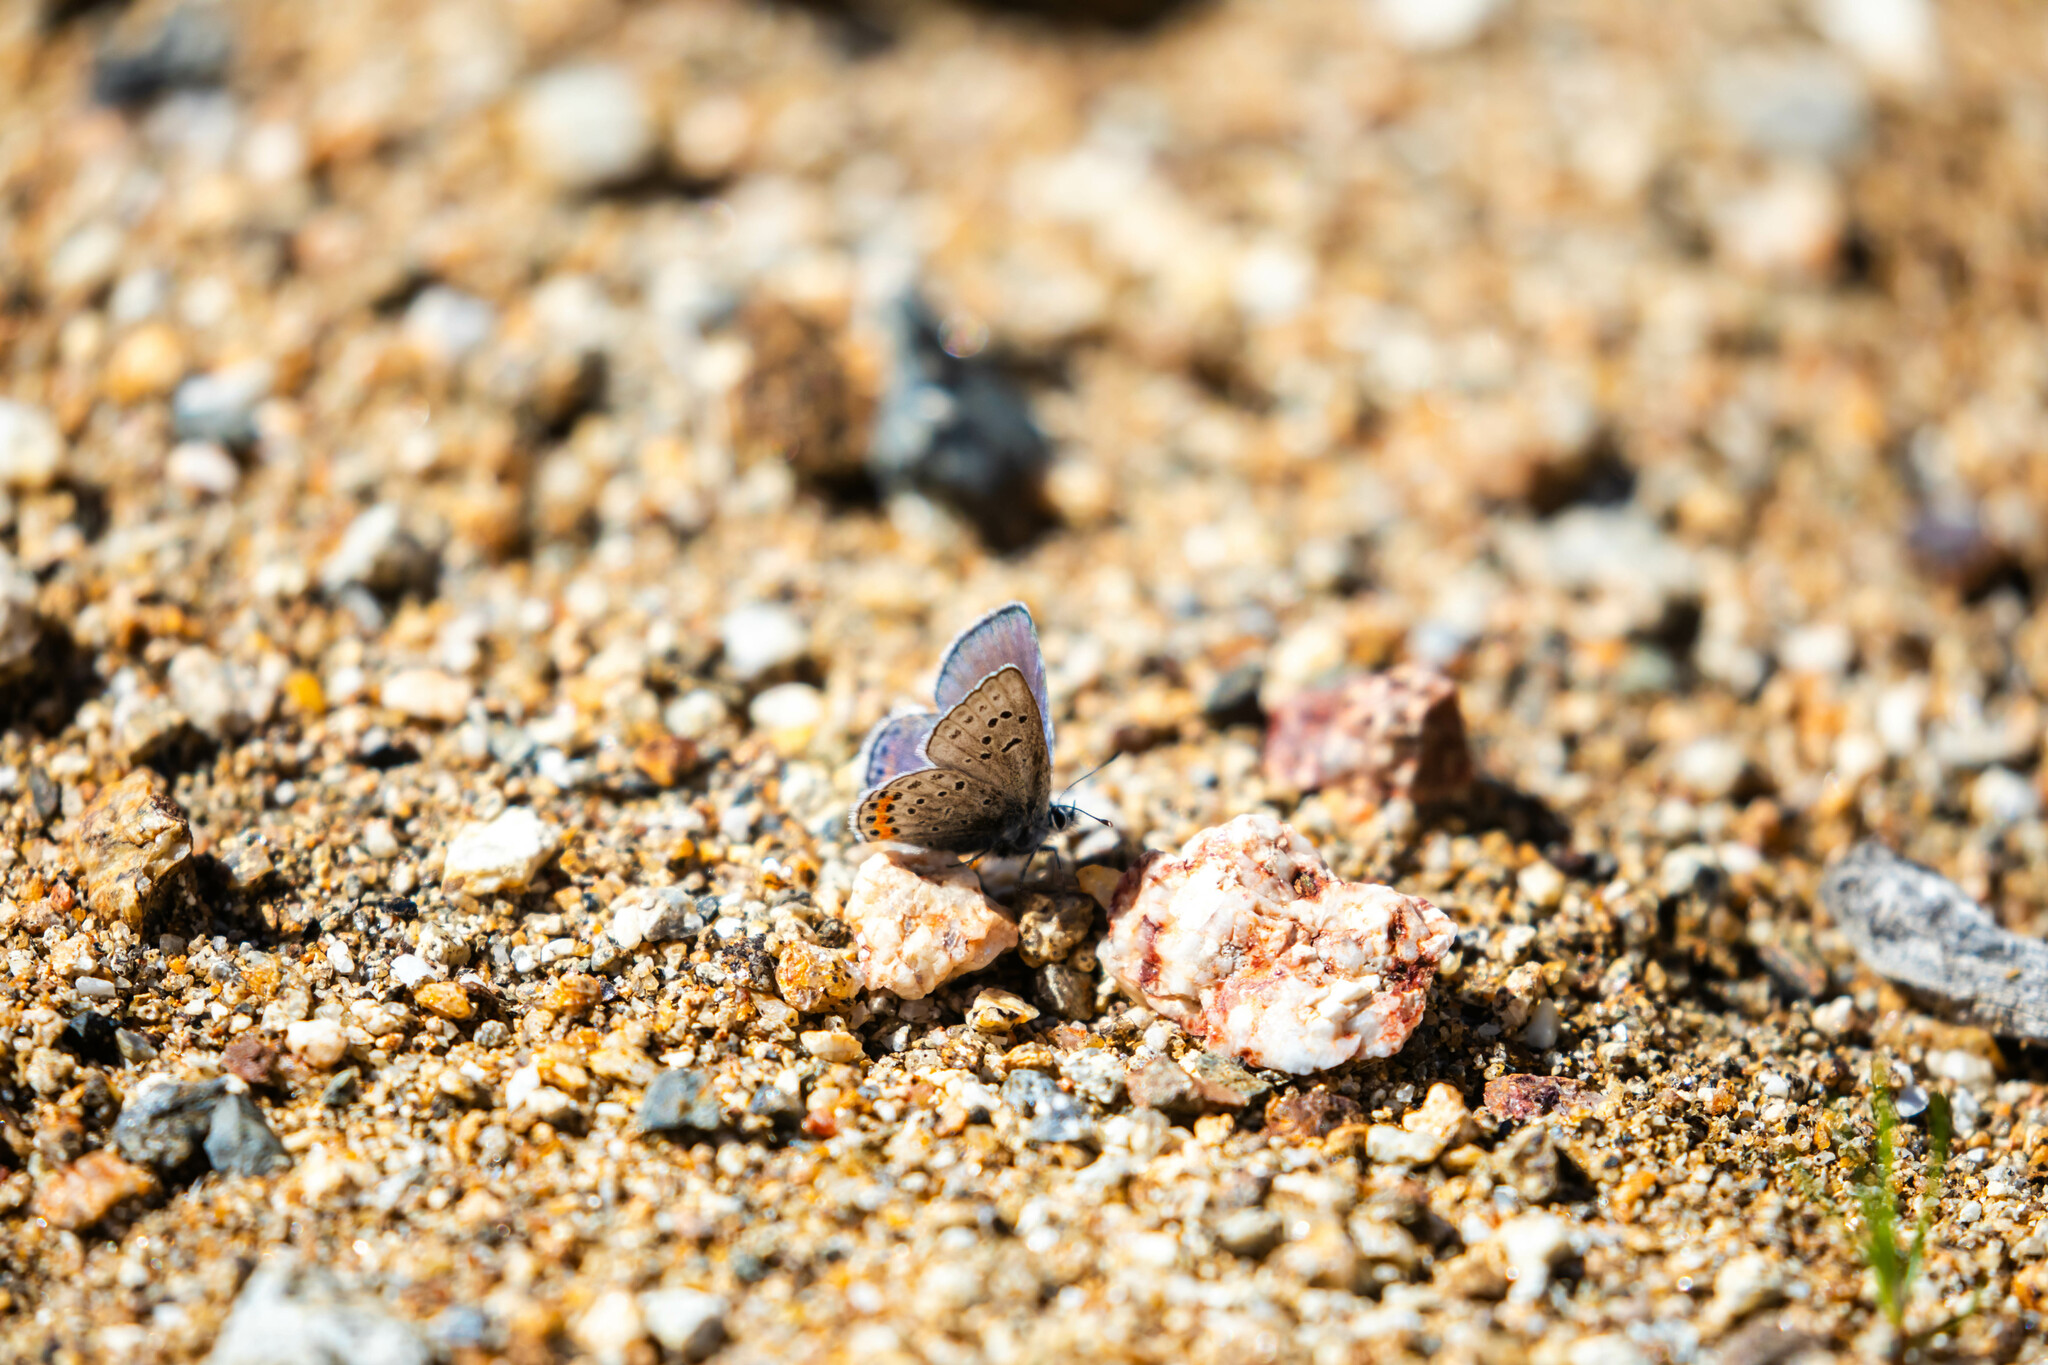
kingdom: Animalia
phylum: Arthropoda
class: Insecta
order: Lepidoptera
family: Lycaenidae
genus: Icaricia
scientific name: Icaricia acmon
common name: Acmon blue
